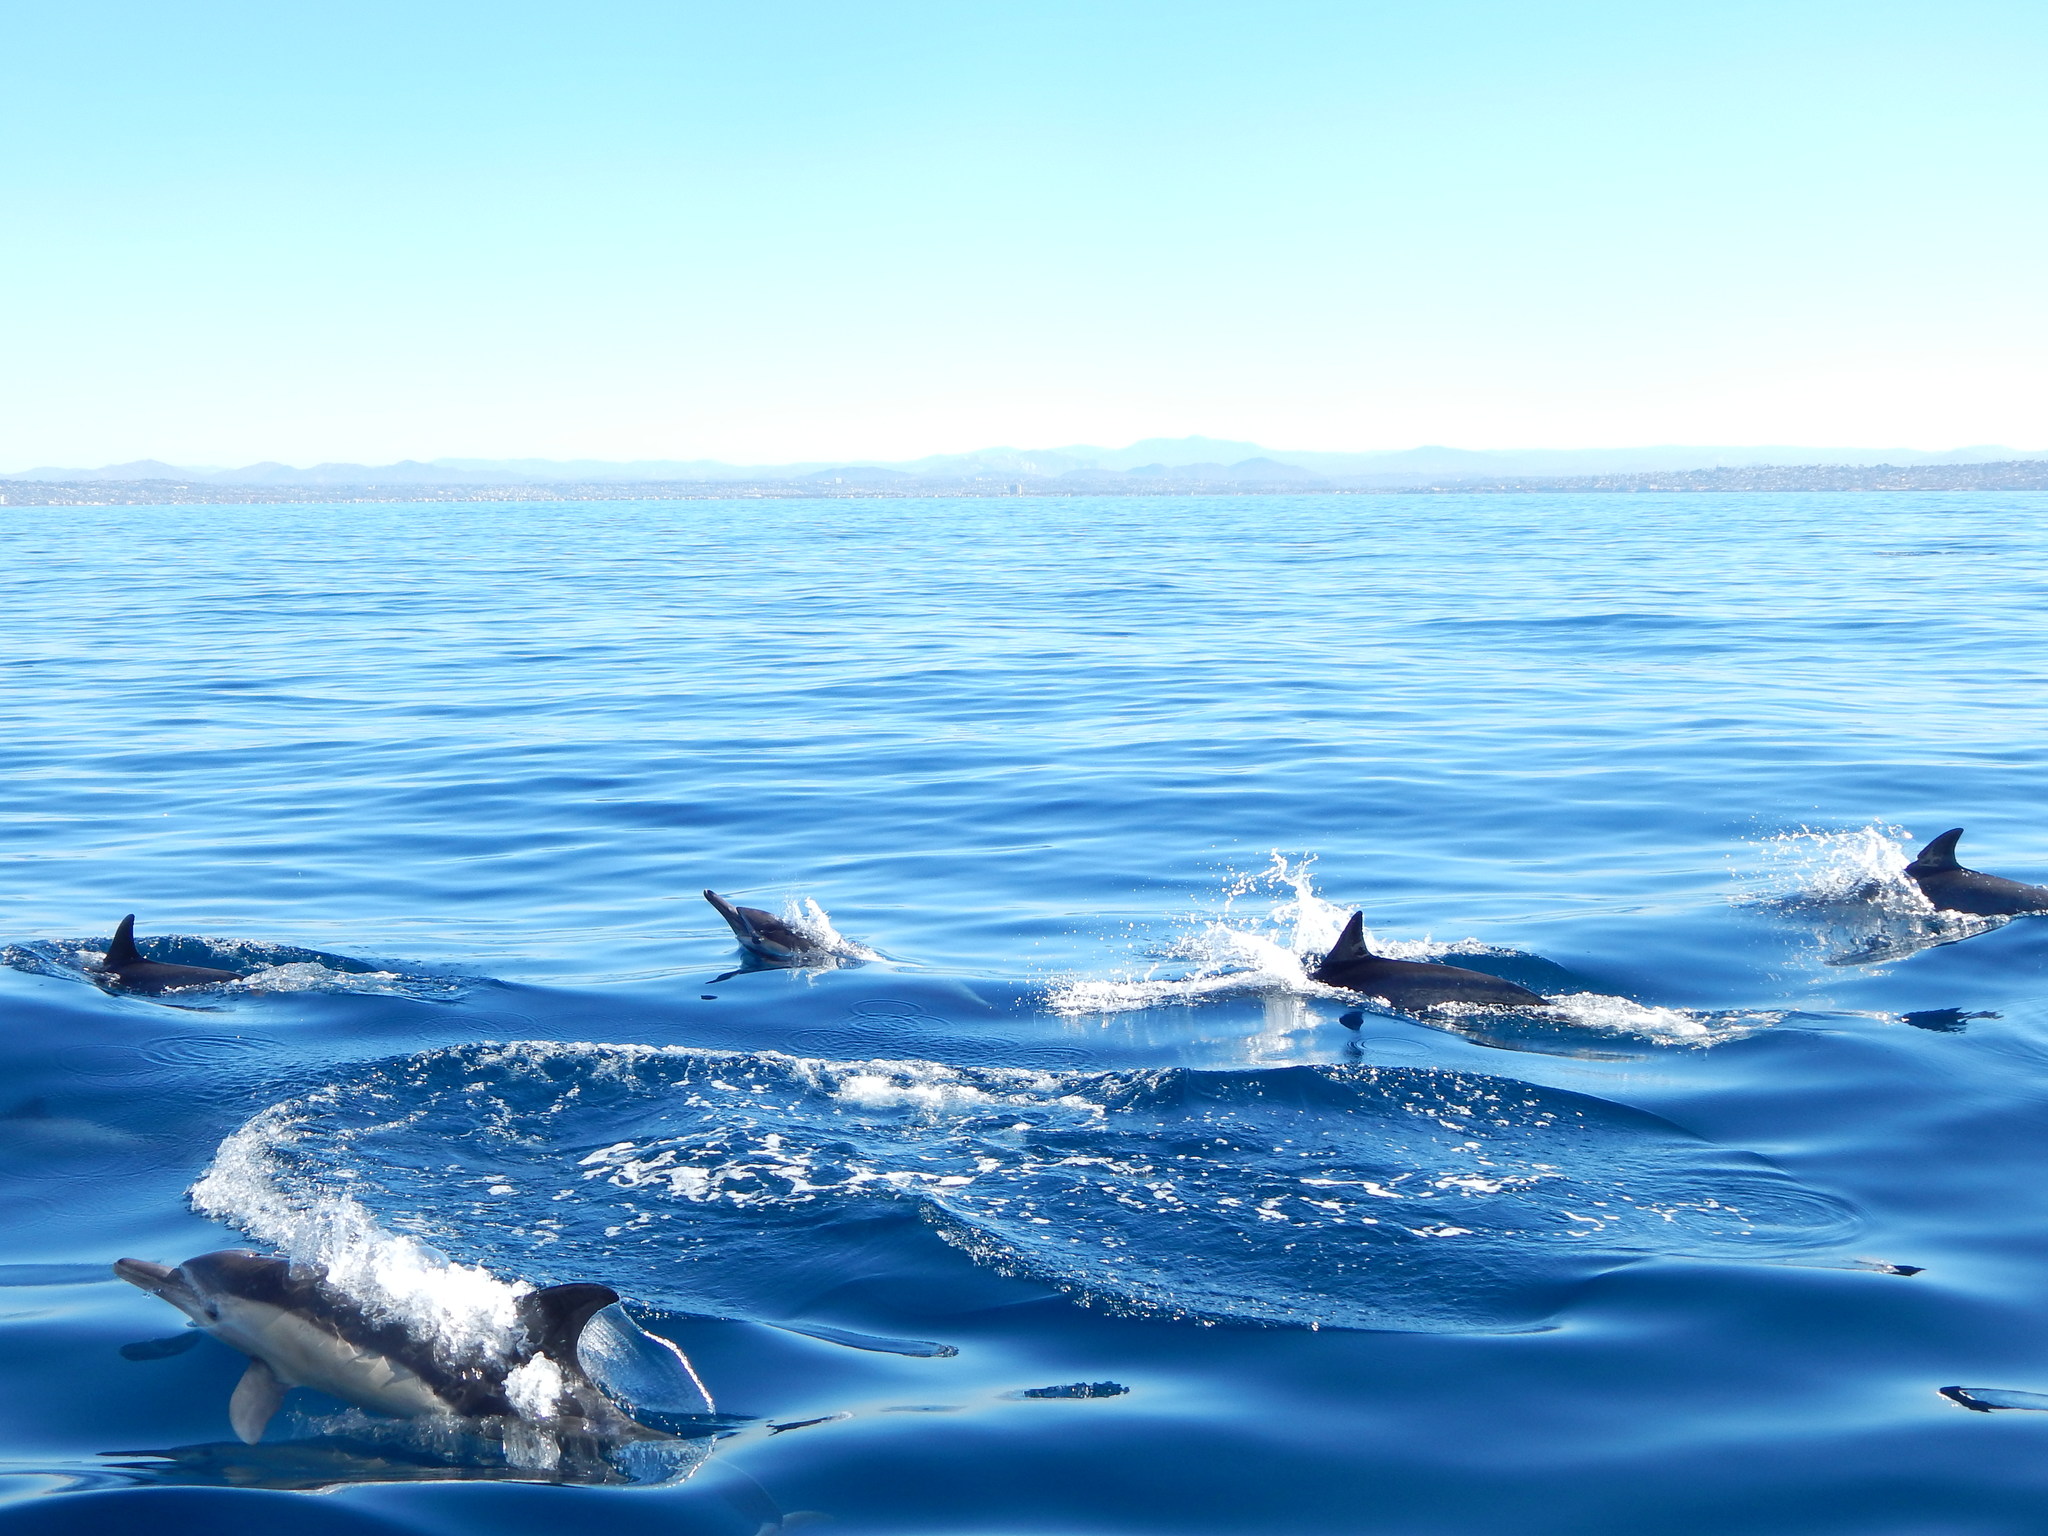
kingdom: Animalia
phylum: Chordata
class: Mammalia
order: Cetacea
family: Delphinidae
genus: Delphinus
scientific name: Delphinus delphis
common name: Common dolphin
